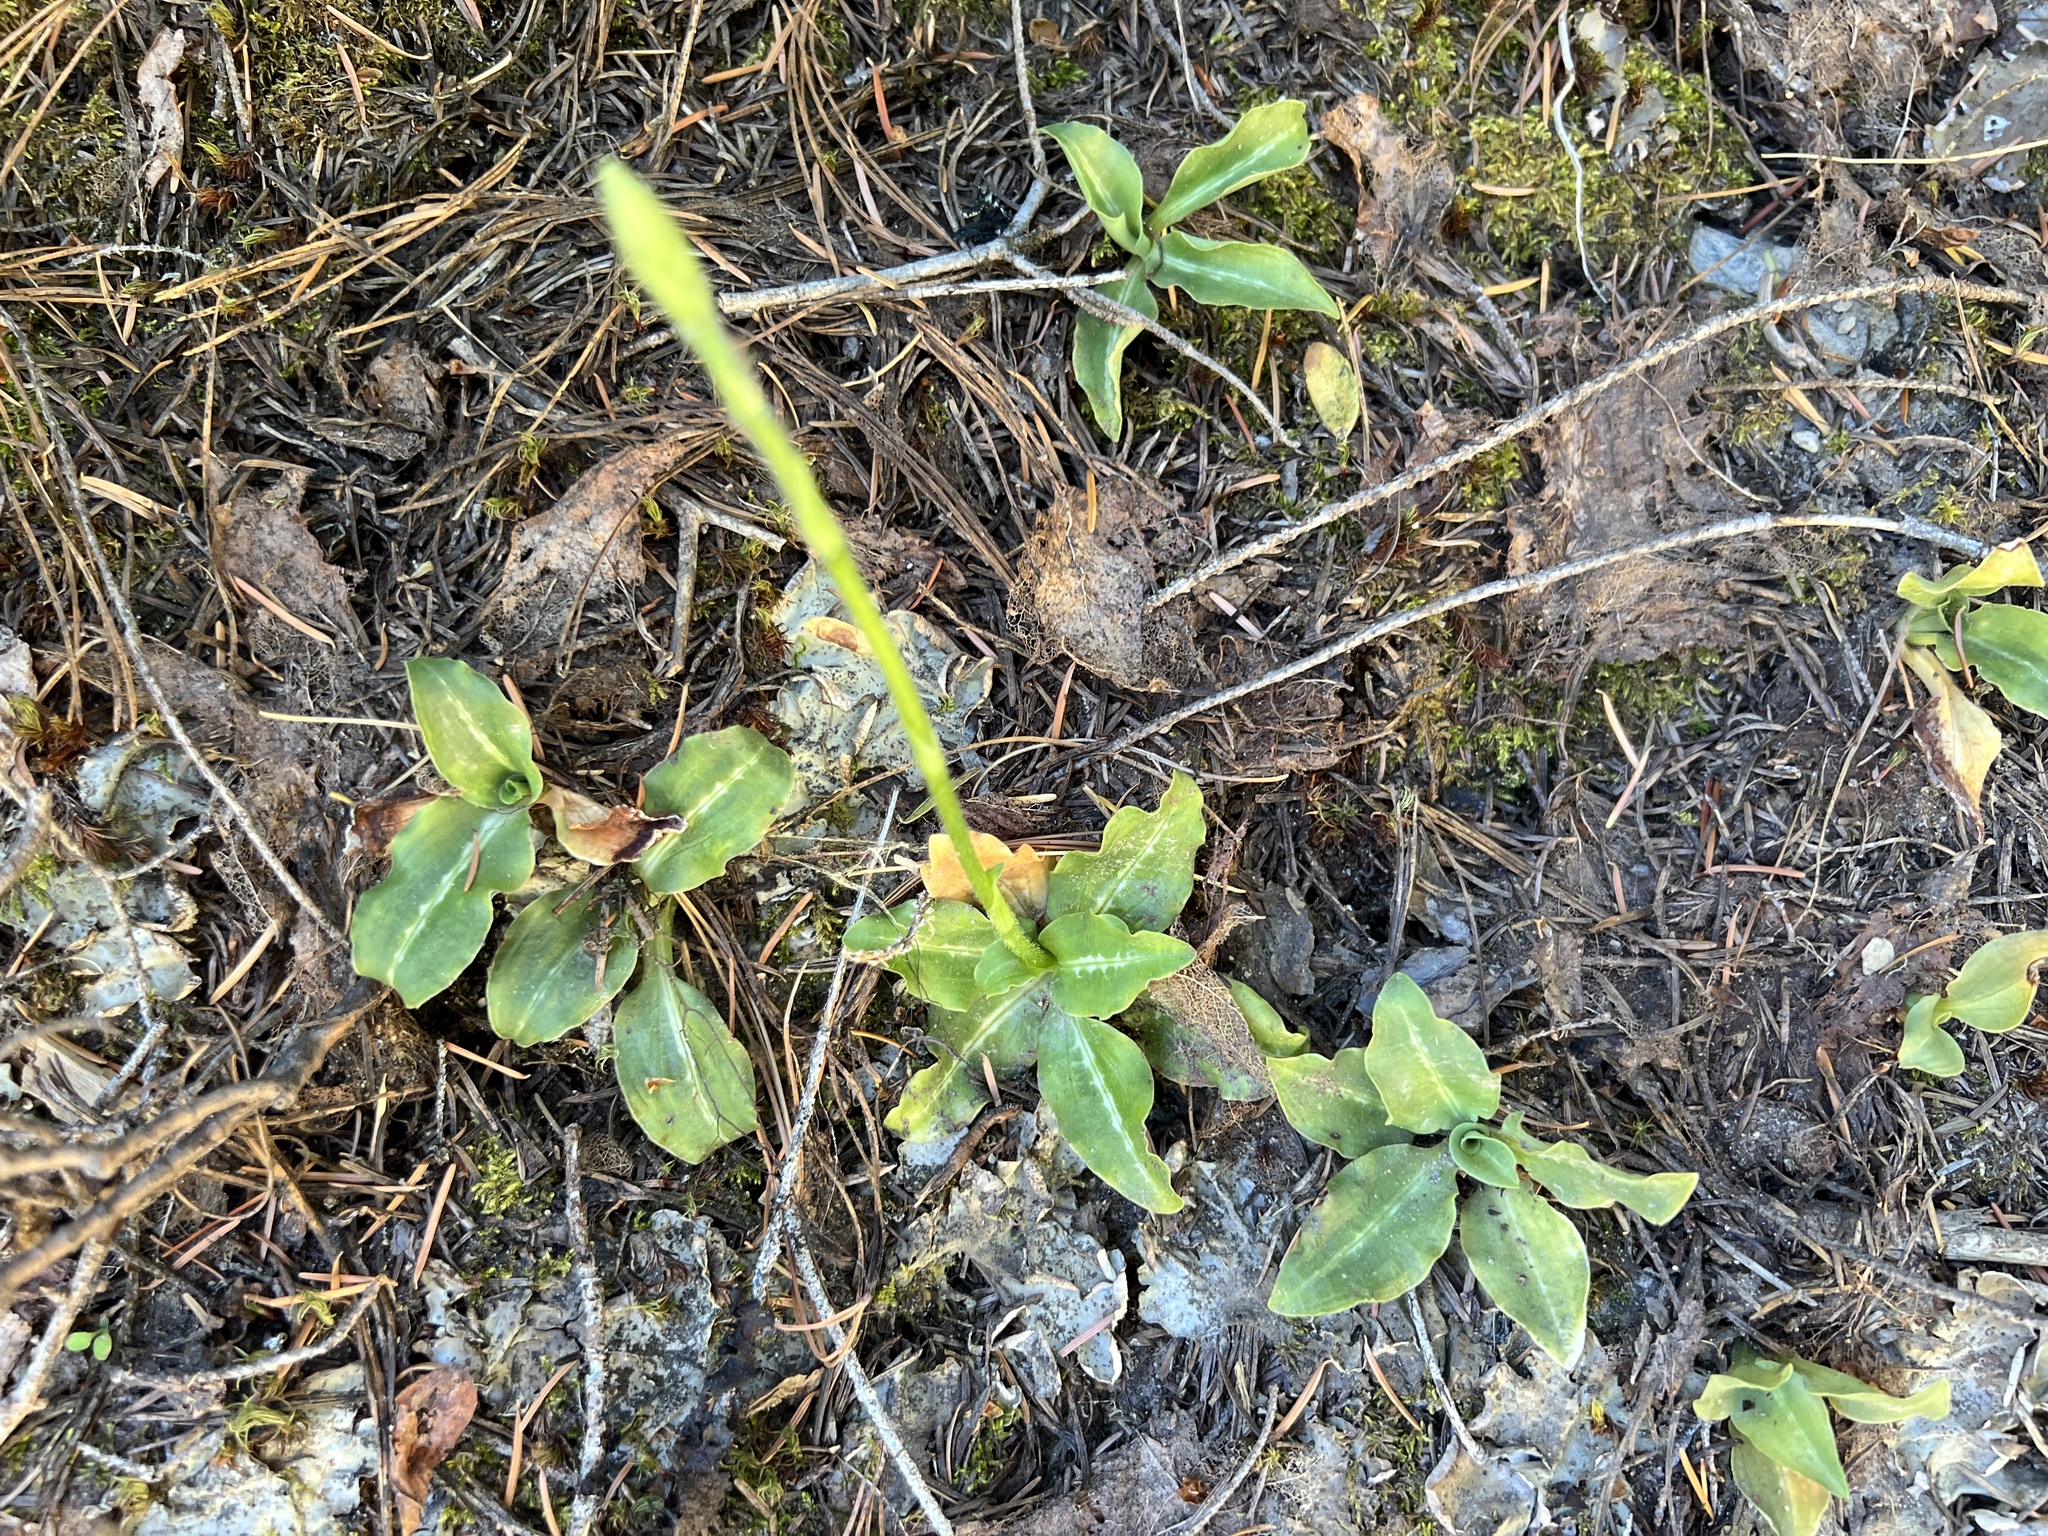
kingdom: Plantae
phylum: Tracheophyta
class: Liliopsida
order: Asparagales
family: Orchidaceae
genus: Goodyera
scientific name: Goodyera oblongifolia
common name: Giant rattlesnake-plantain
